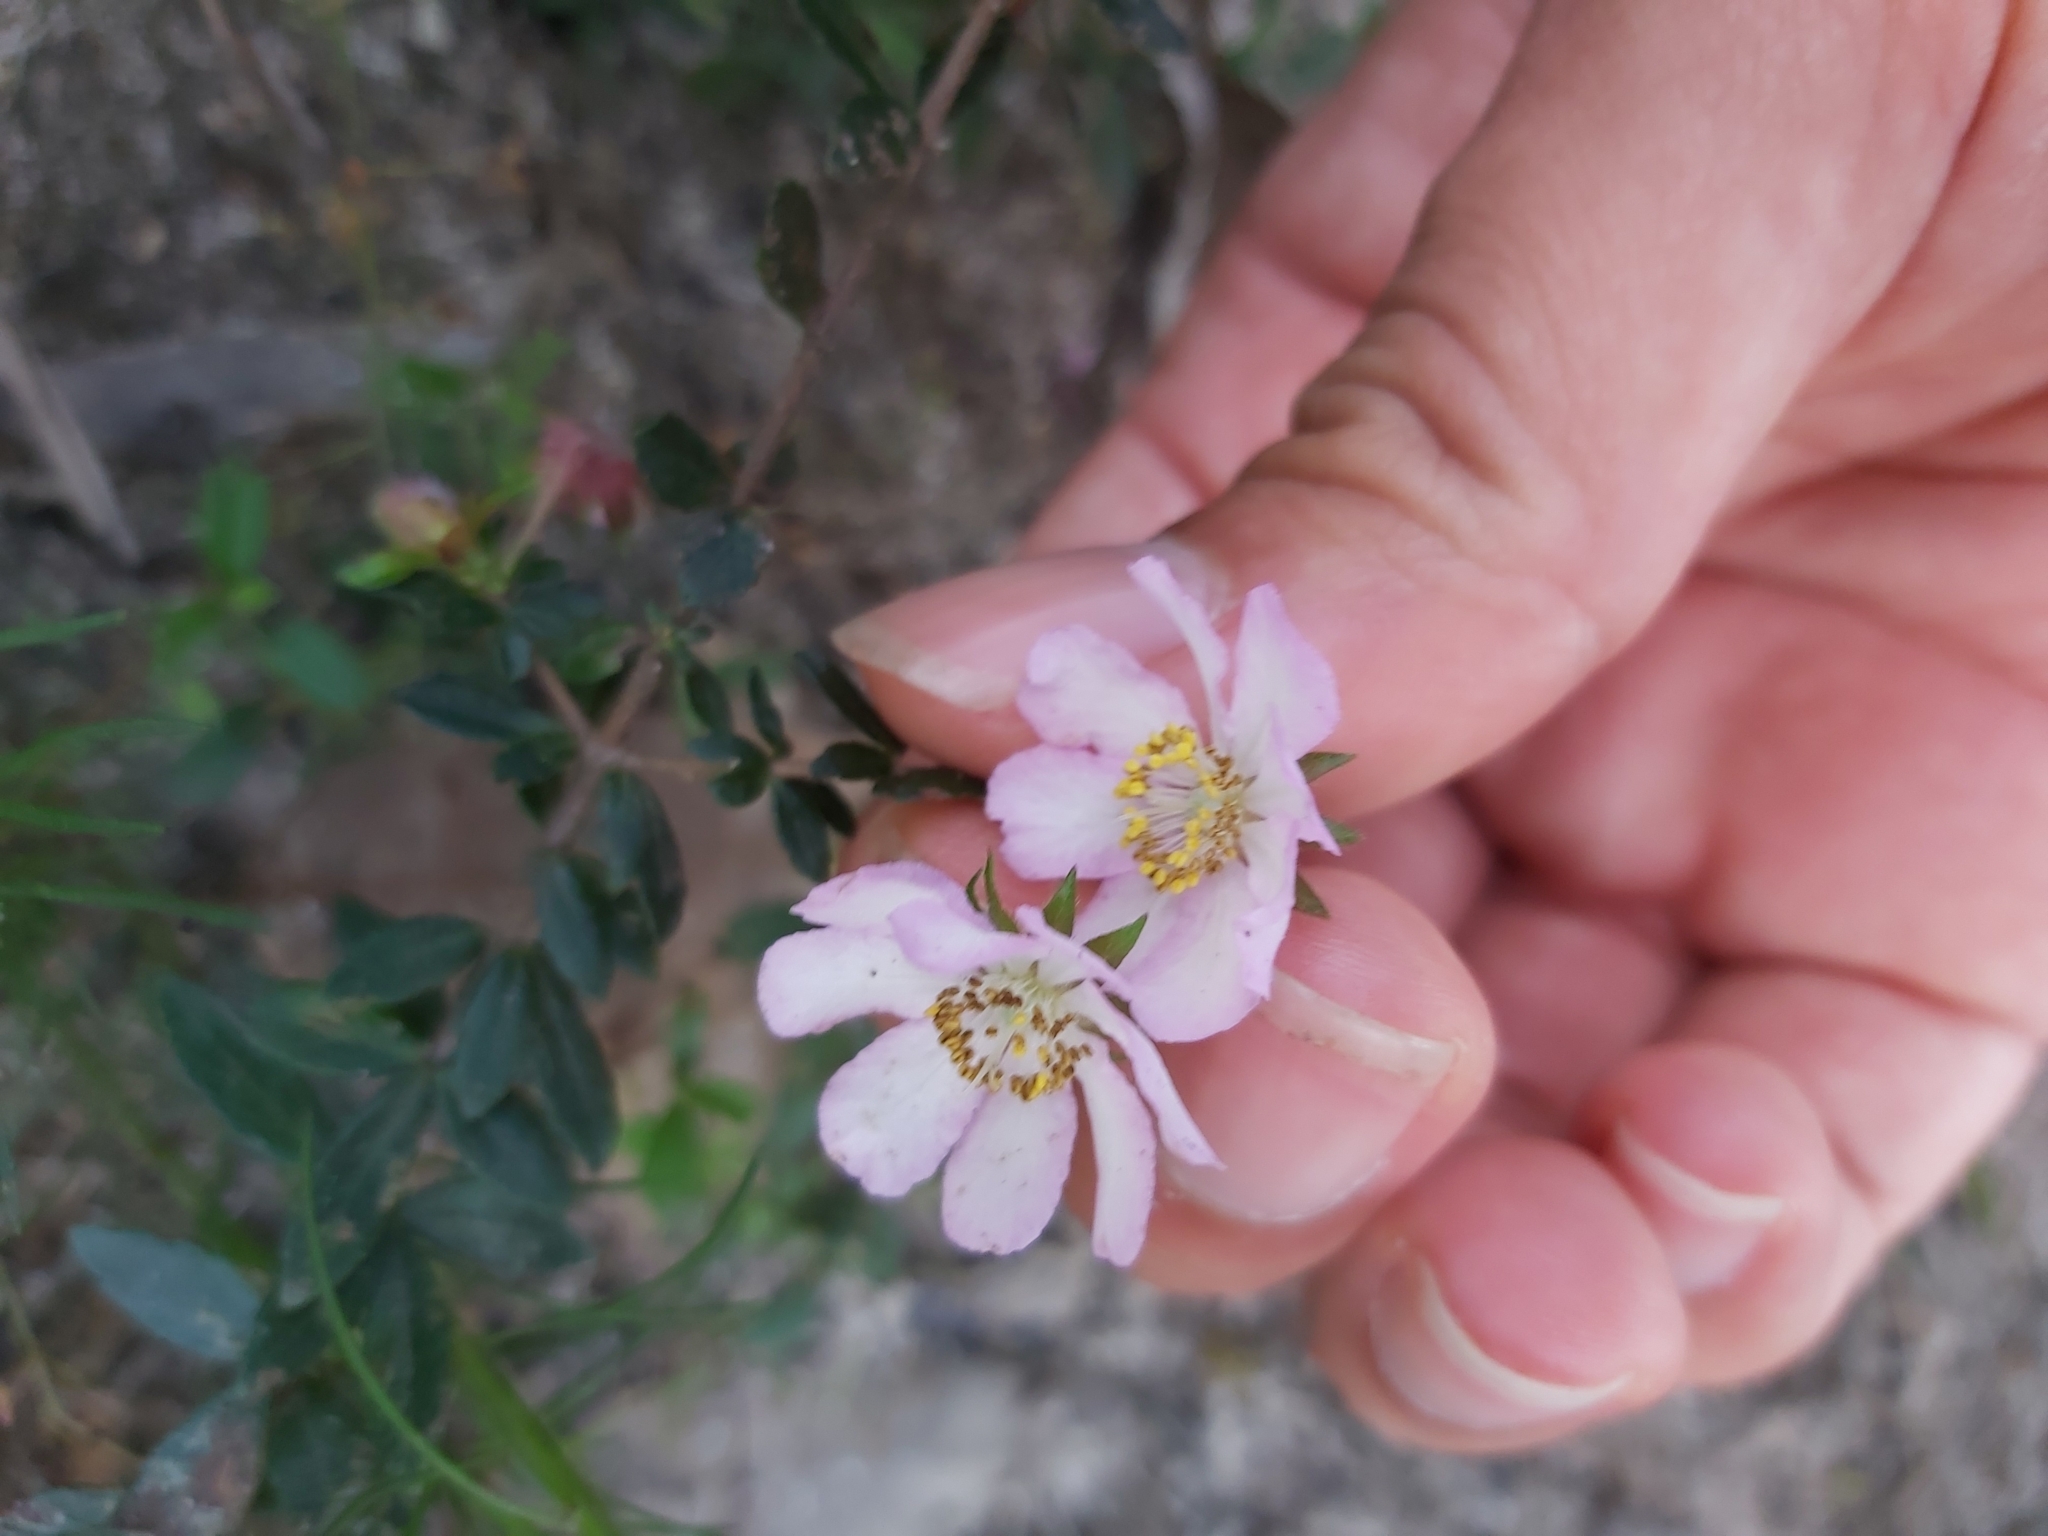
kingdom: Plantae
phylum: Tracheophyta
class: Magnoliopsida
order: Oxalidales
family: Cunoniaceae
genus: Bauera
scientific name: Bauera rubioides
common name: River-rose
